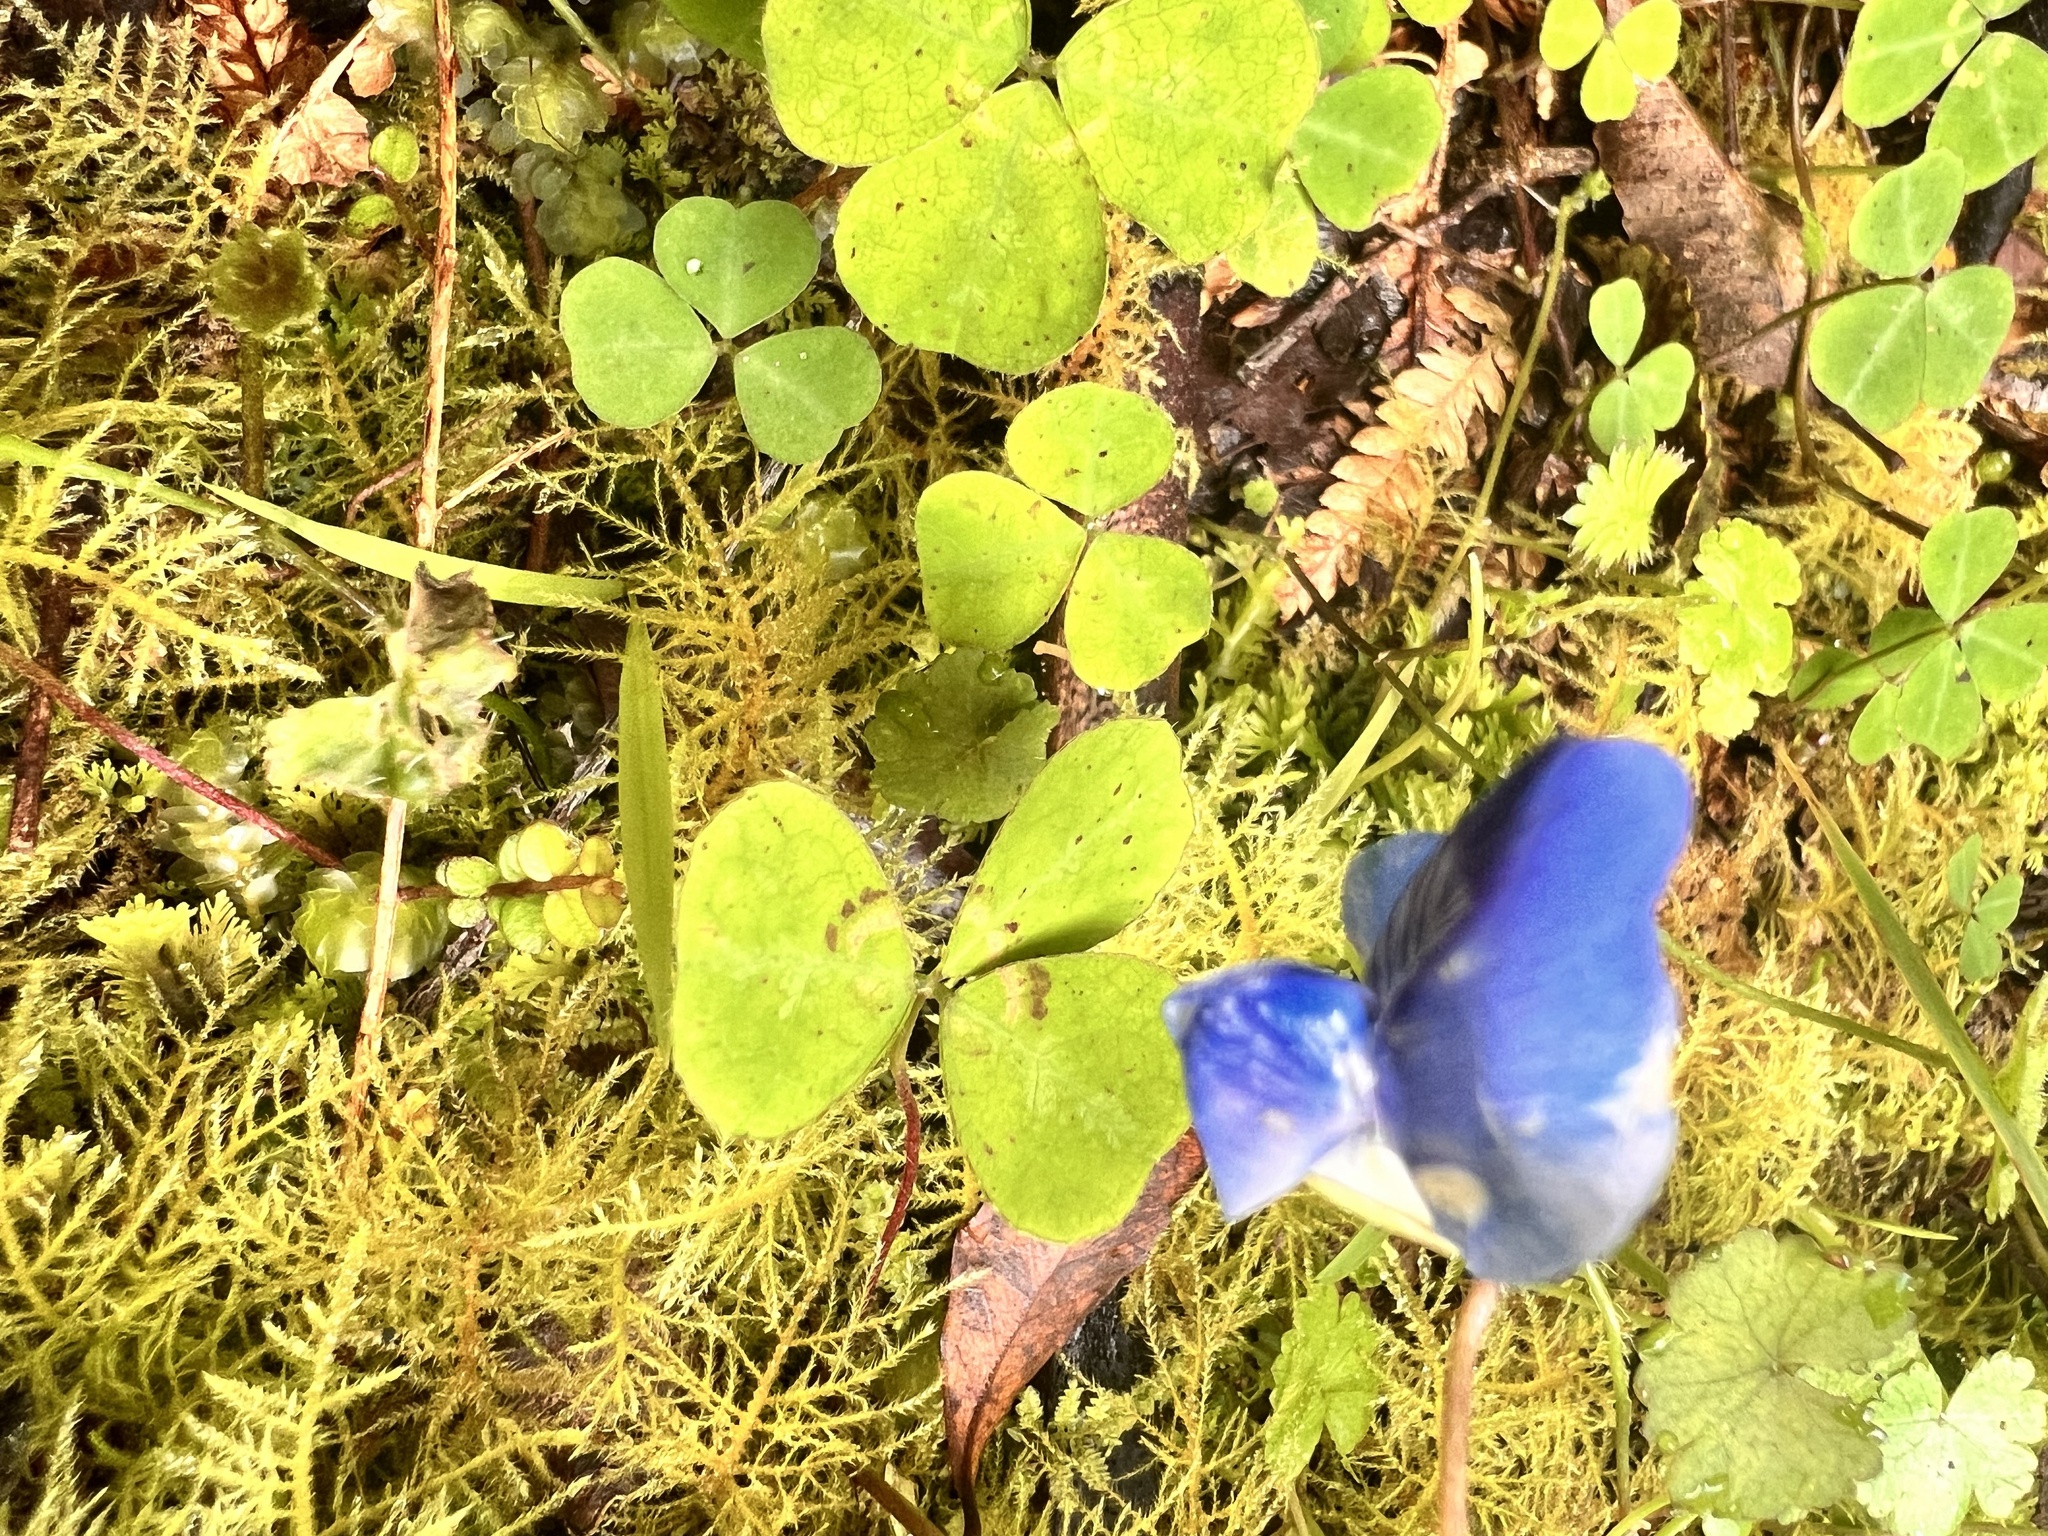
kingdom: Plantae
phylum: Tracheophyta
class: Magnoliopsida
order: Fabales
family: Fabaceae
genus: Parochetus
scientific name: Parochetus communis
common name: Blue oxalis
